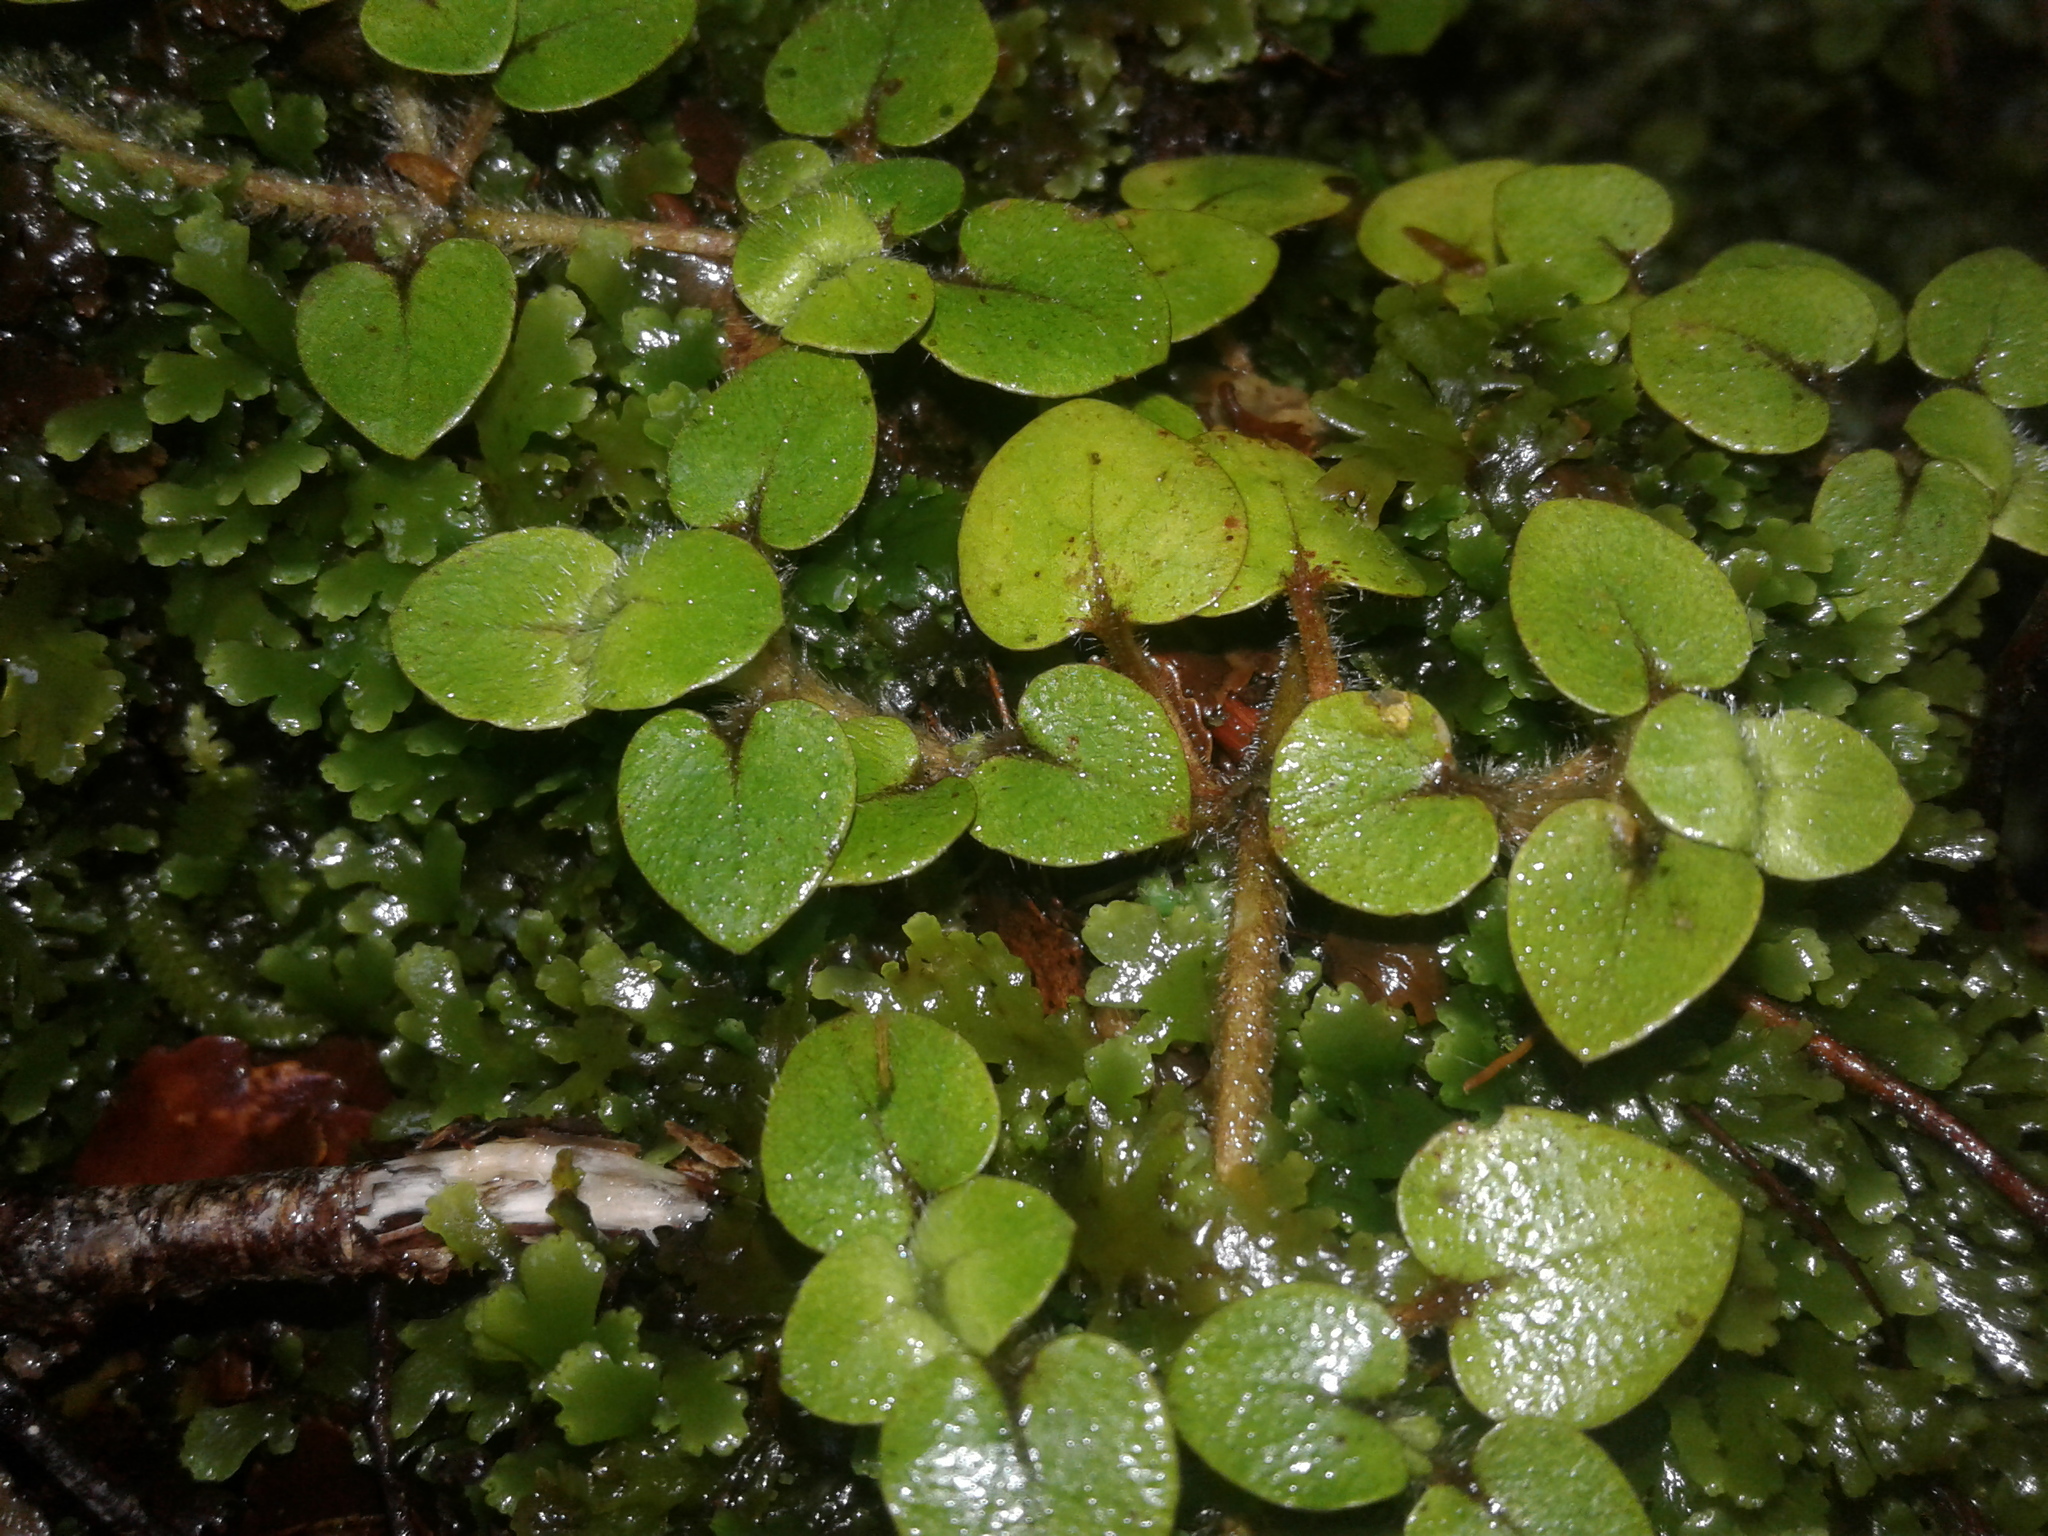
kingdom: Plantae
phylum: Tracheophyta
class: Magnoliopsida
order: Gentianales
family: Rubiaceae
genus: Nertera
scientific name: Nertera villosa
